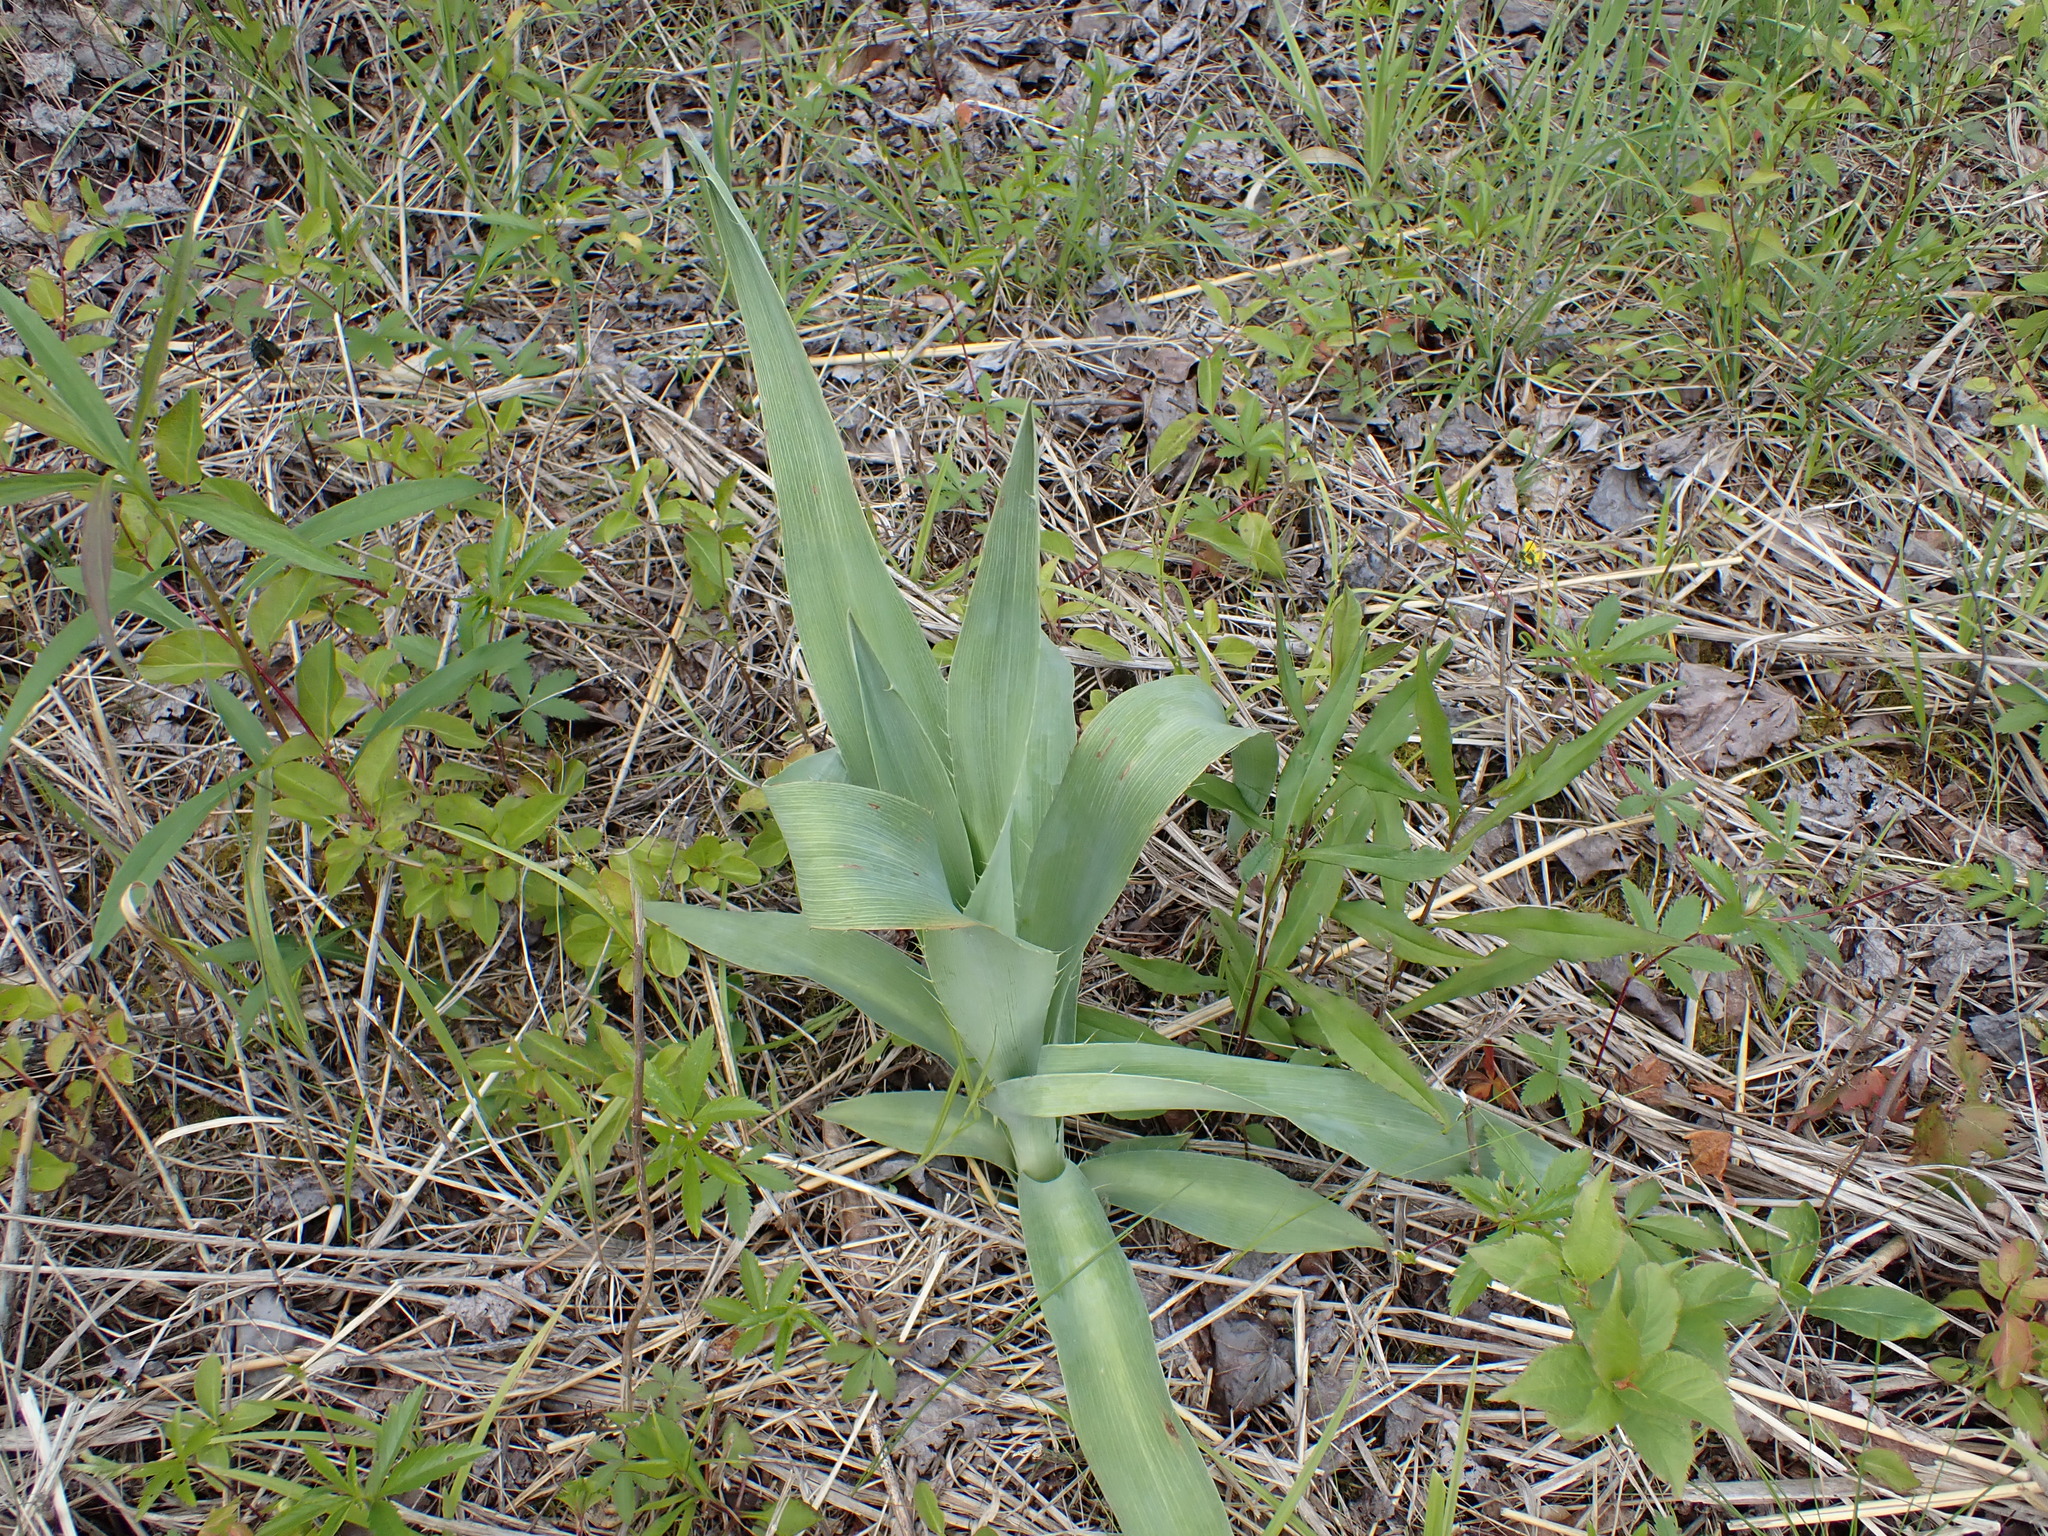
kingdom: Plantae
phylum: Tracheophyta
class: Magnoliopsida
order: Apiales
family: Apiaceae
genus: Eryngium
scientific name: Eryngium yuccifolium
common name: Button eryngo
